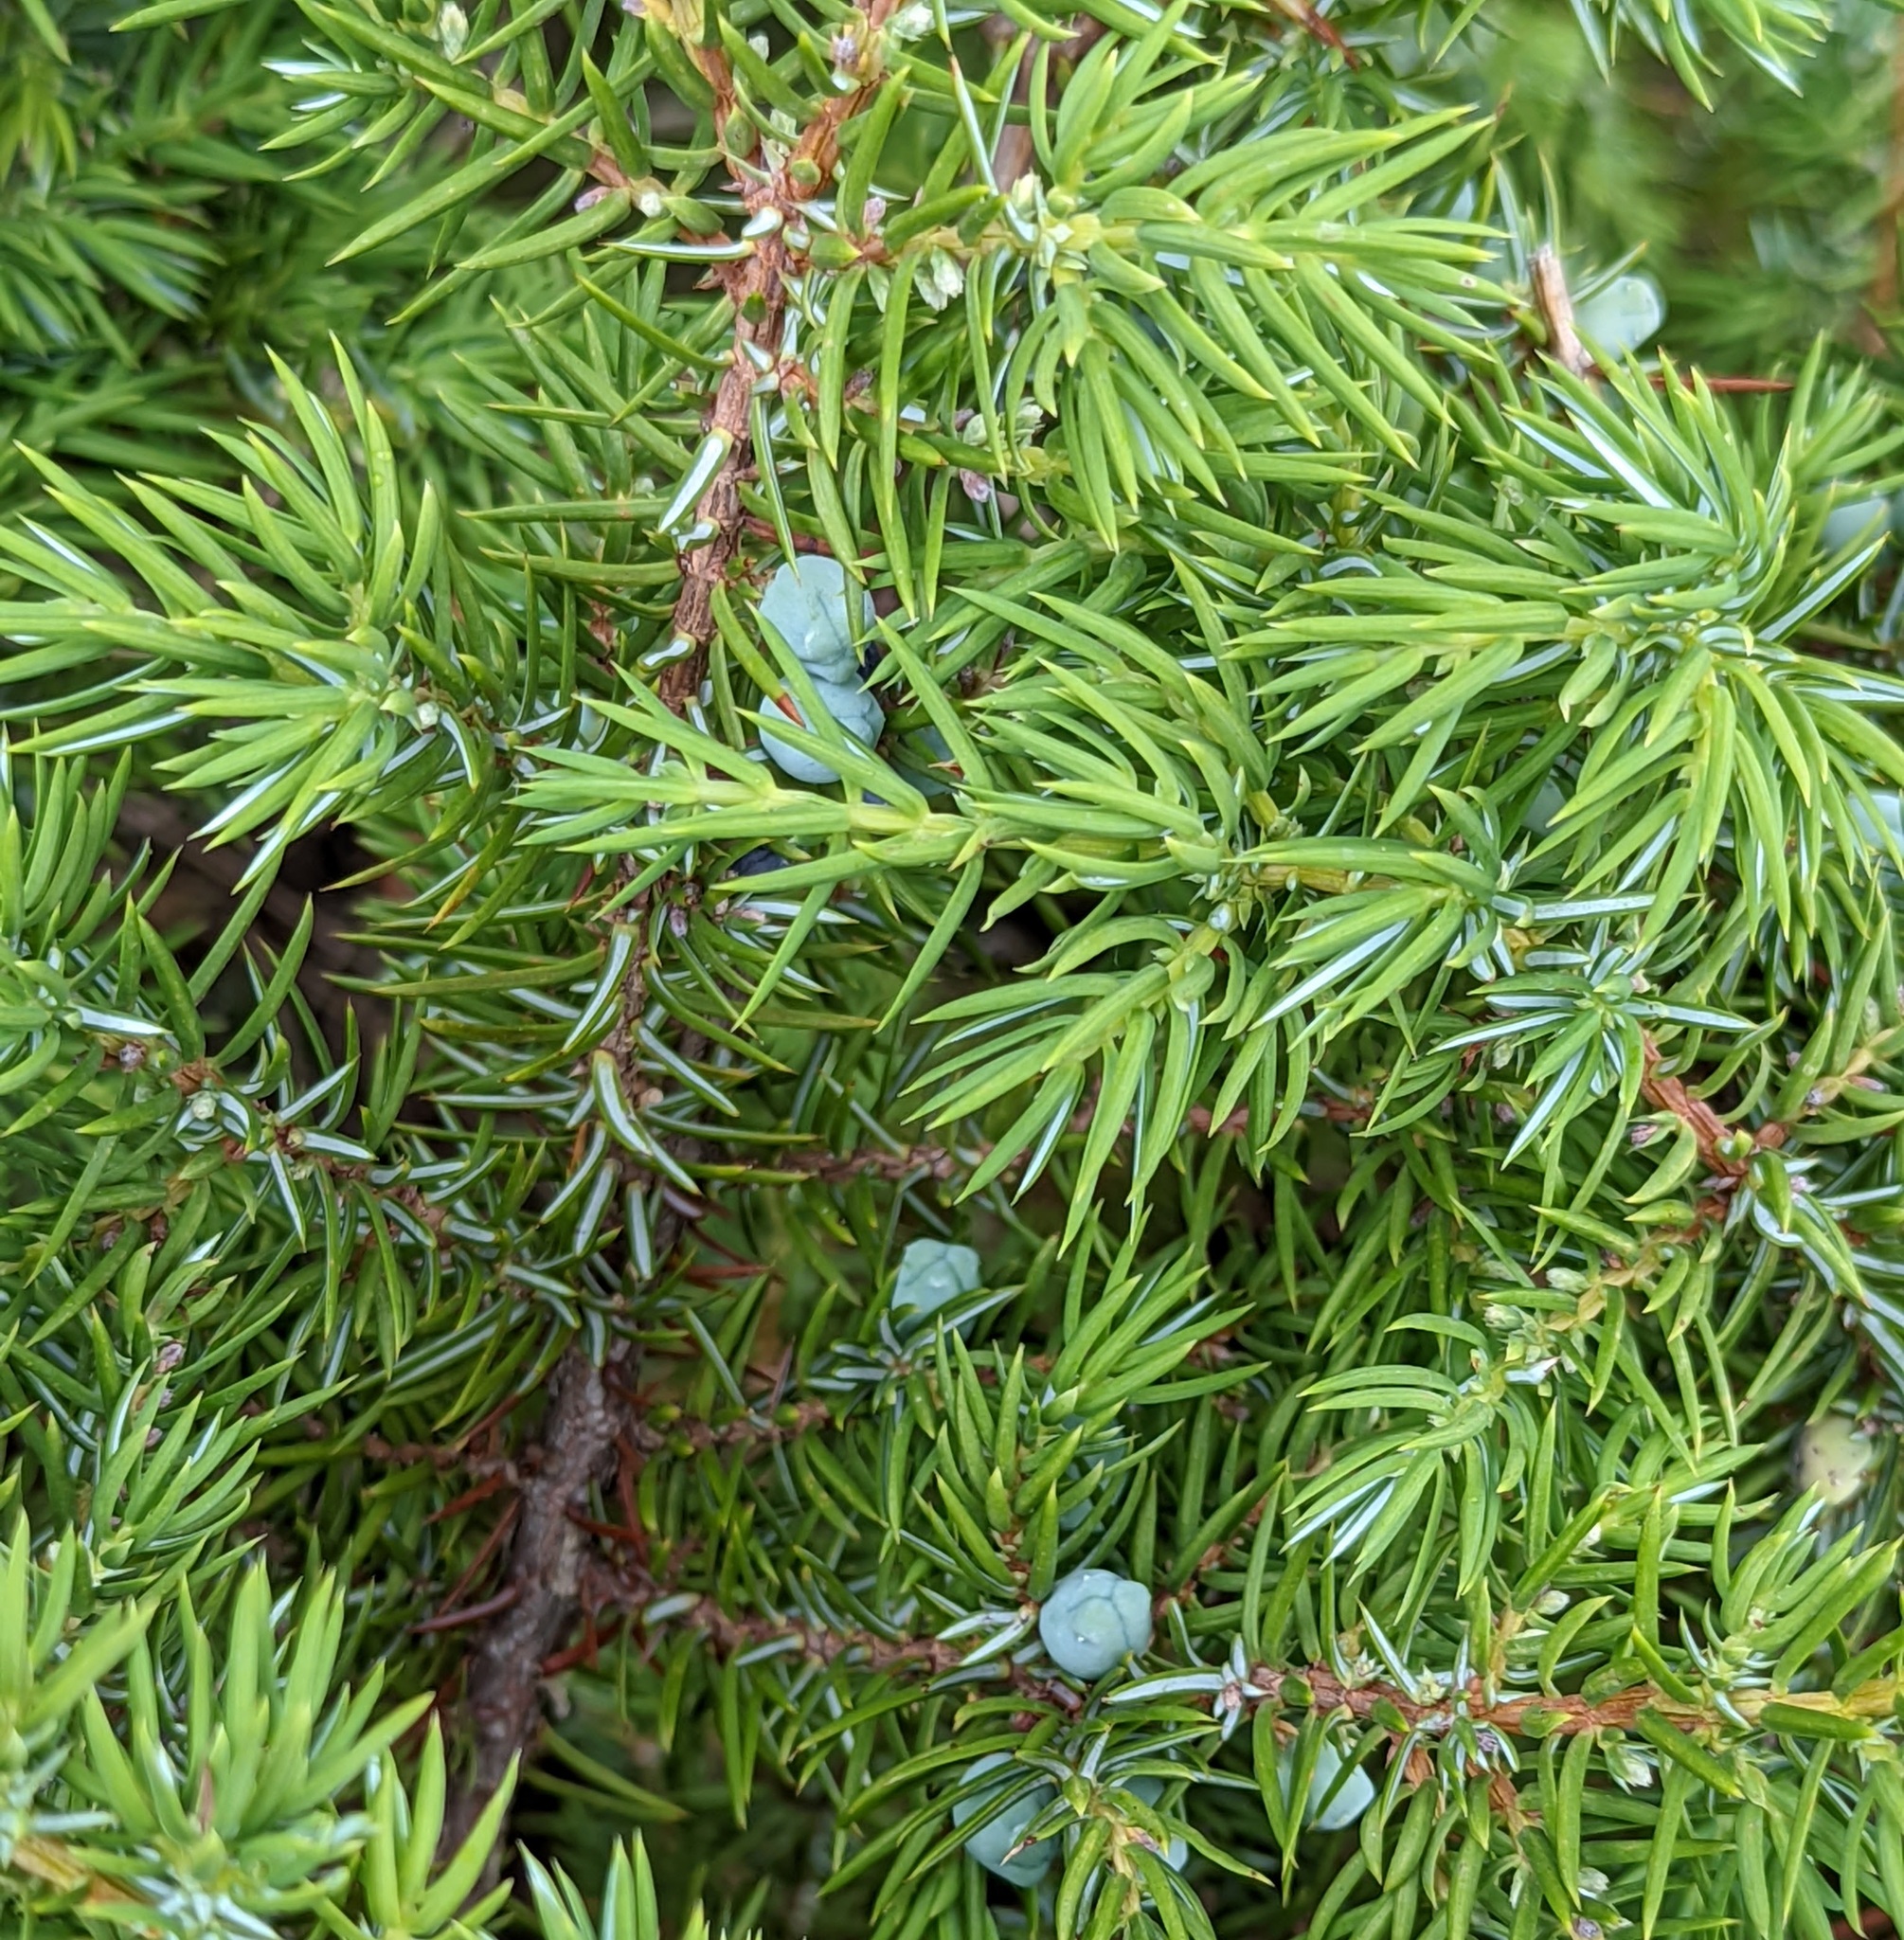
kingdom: Plantae
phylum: Tracheophyta
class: Pinopsida
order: Pinales
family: Cupressaceae
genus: Juniperus
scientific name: Juniperus communis
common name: Common juniper
